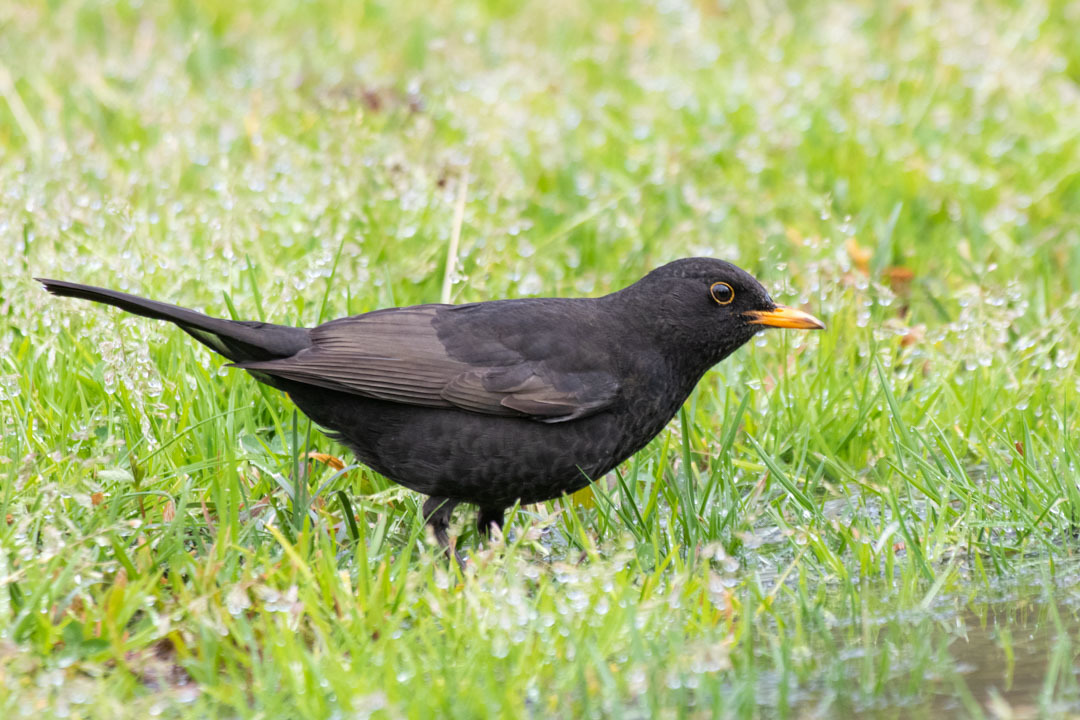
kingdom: Animalia
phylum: Chordata
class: Aves
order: Passeriformes
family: Turdidae
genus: Turdus
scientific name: Turdus merula
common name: Common blackbird
